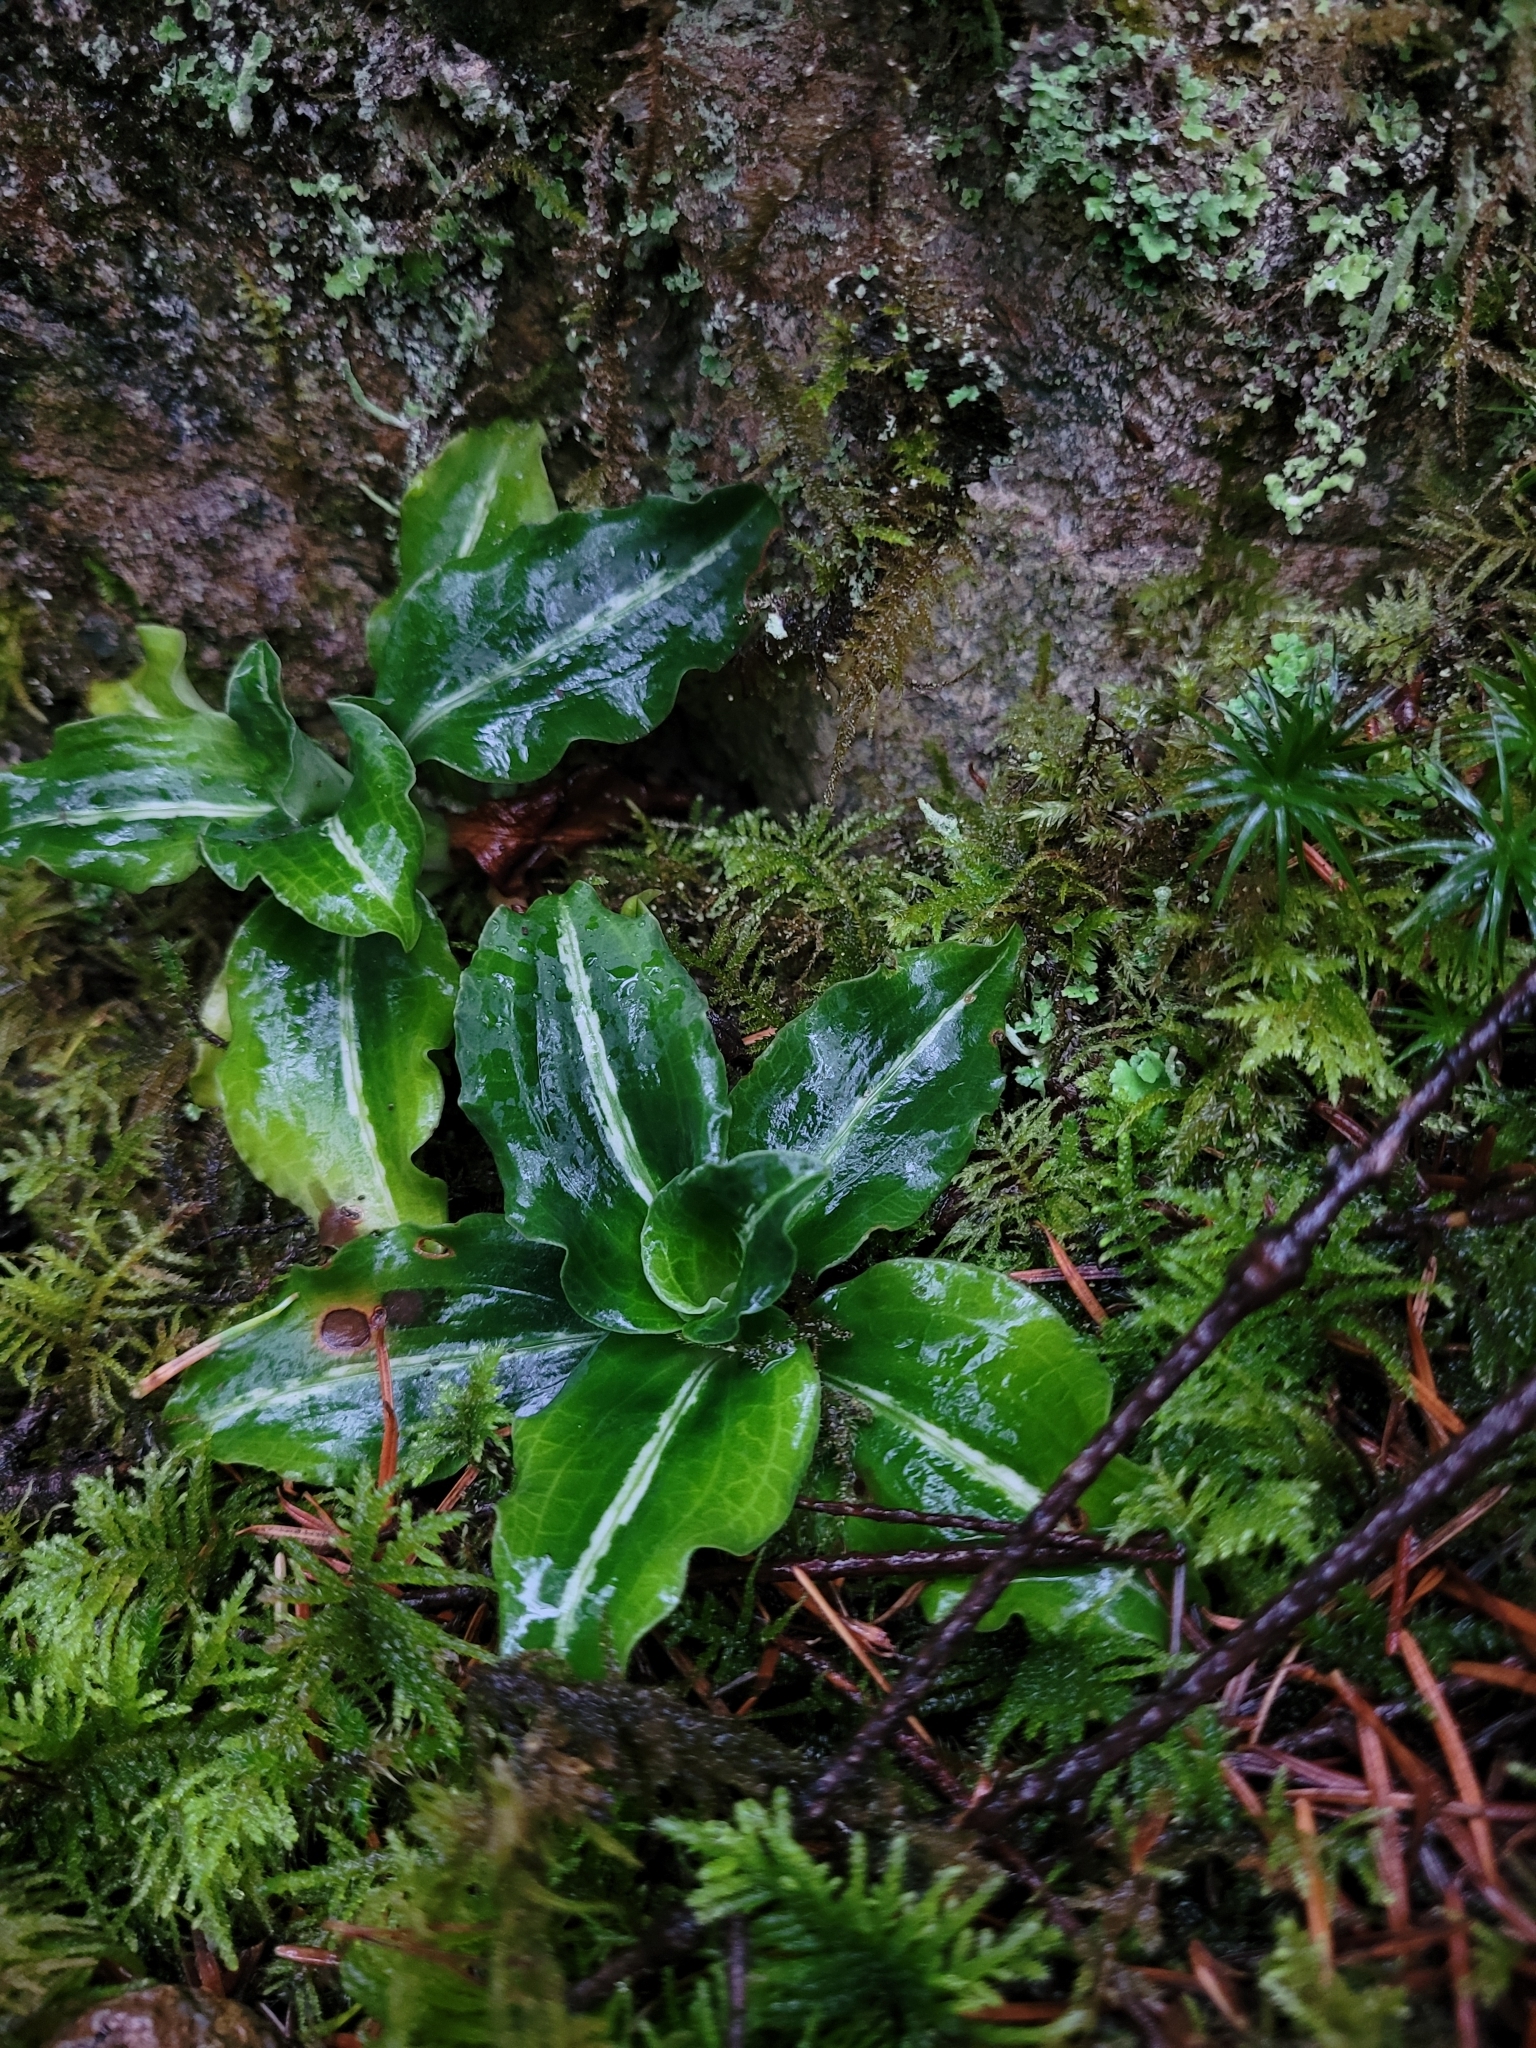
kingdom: Plantae
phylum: Tracheophyta
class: Liliopsida
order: Asparagales
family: Orchidaceae
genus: Goodyera
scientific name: Goodyera oblongifolia
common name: Giant rattlesnake-plantain
